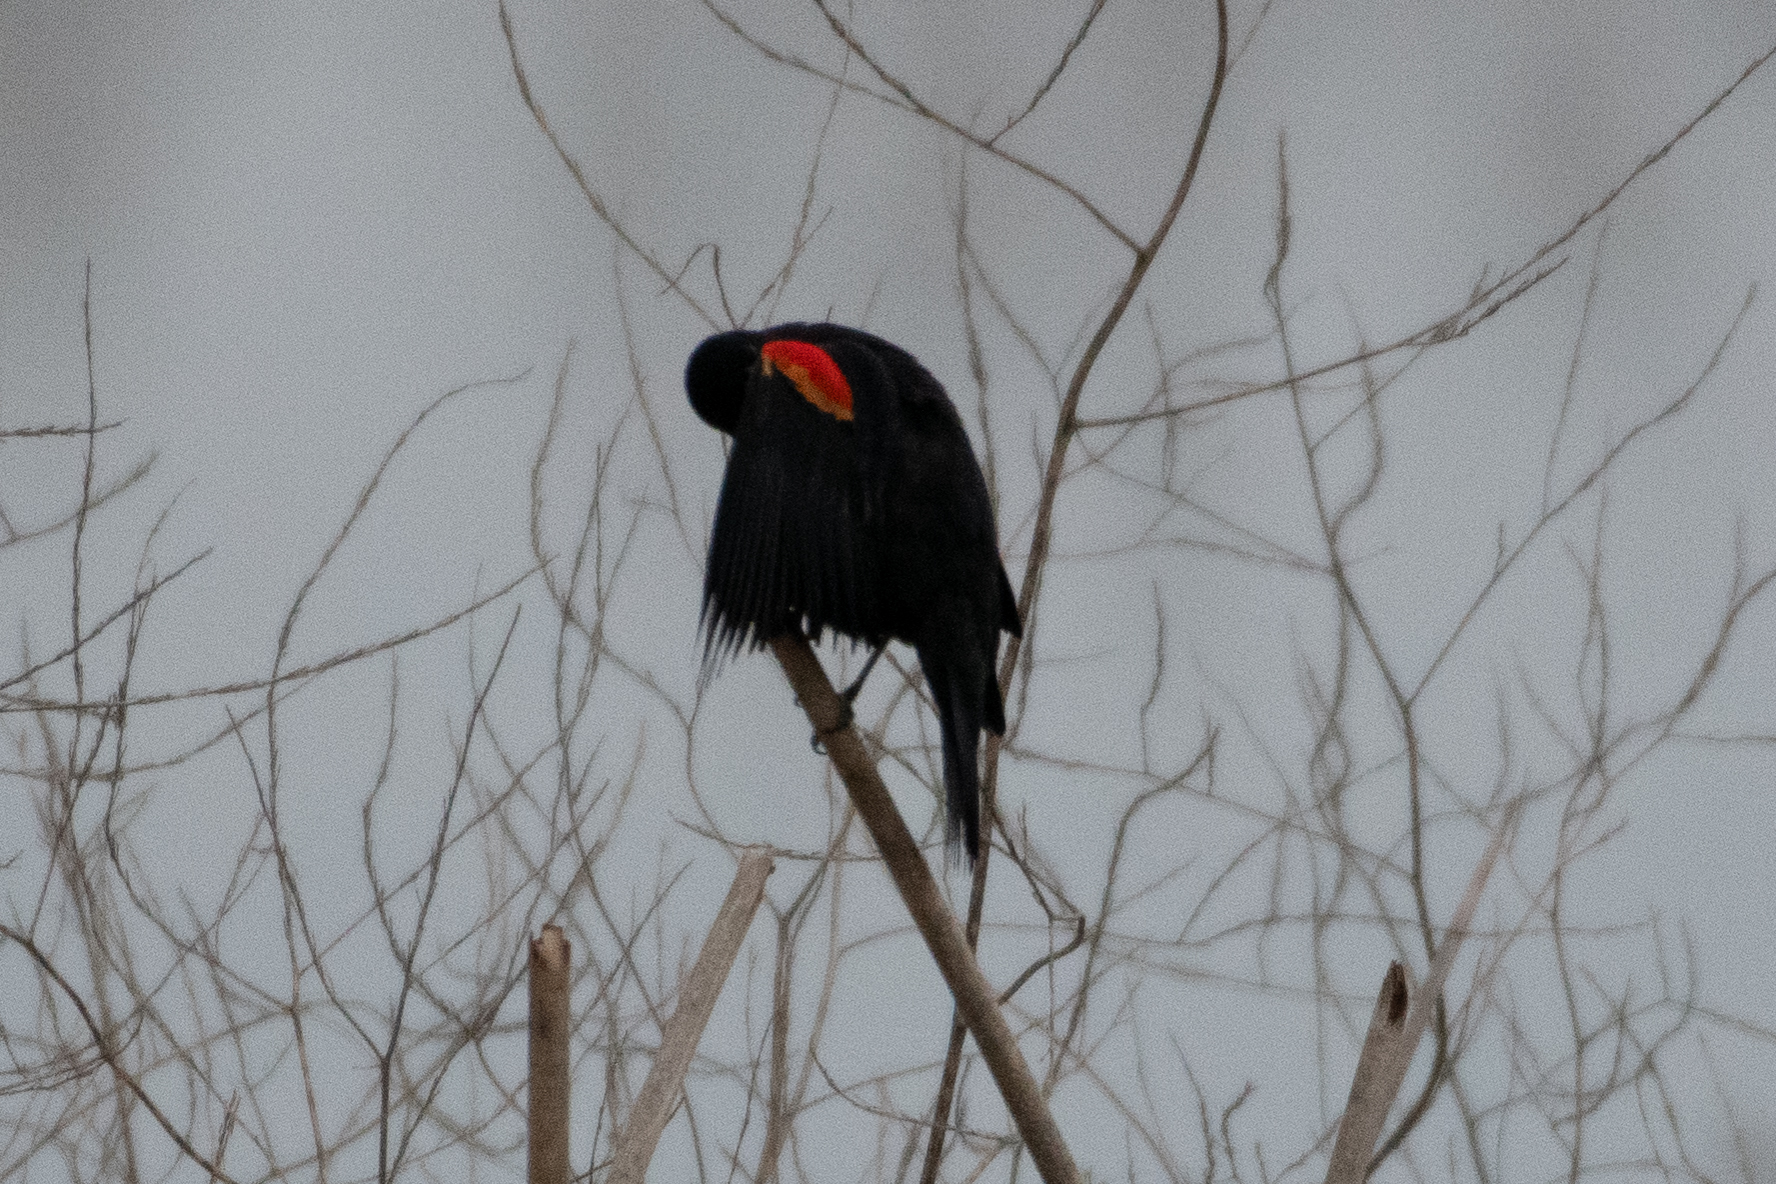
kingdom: Animalia
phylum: Chordata
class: Aves
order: Passeriformes
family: Icteridae
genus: Agelaius
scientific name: Agelaius phoeniceus
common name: Red-winged blackbird
